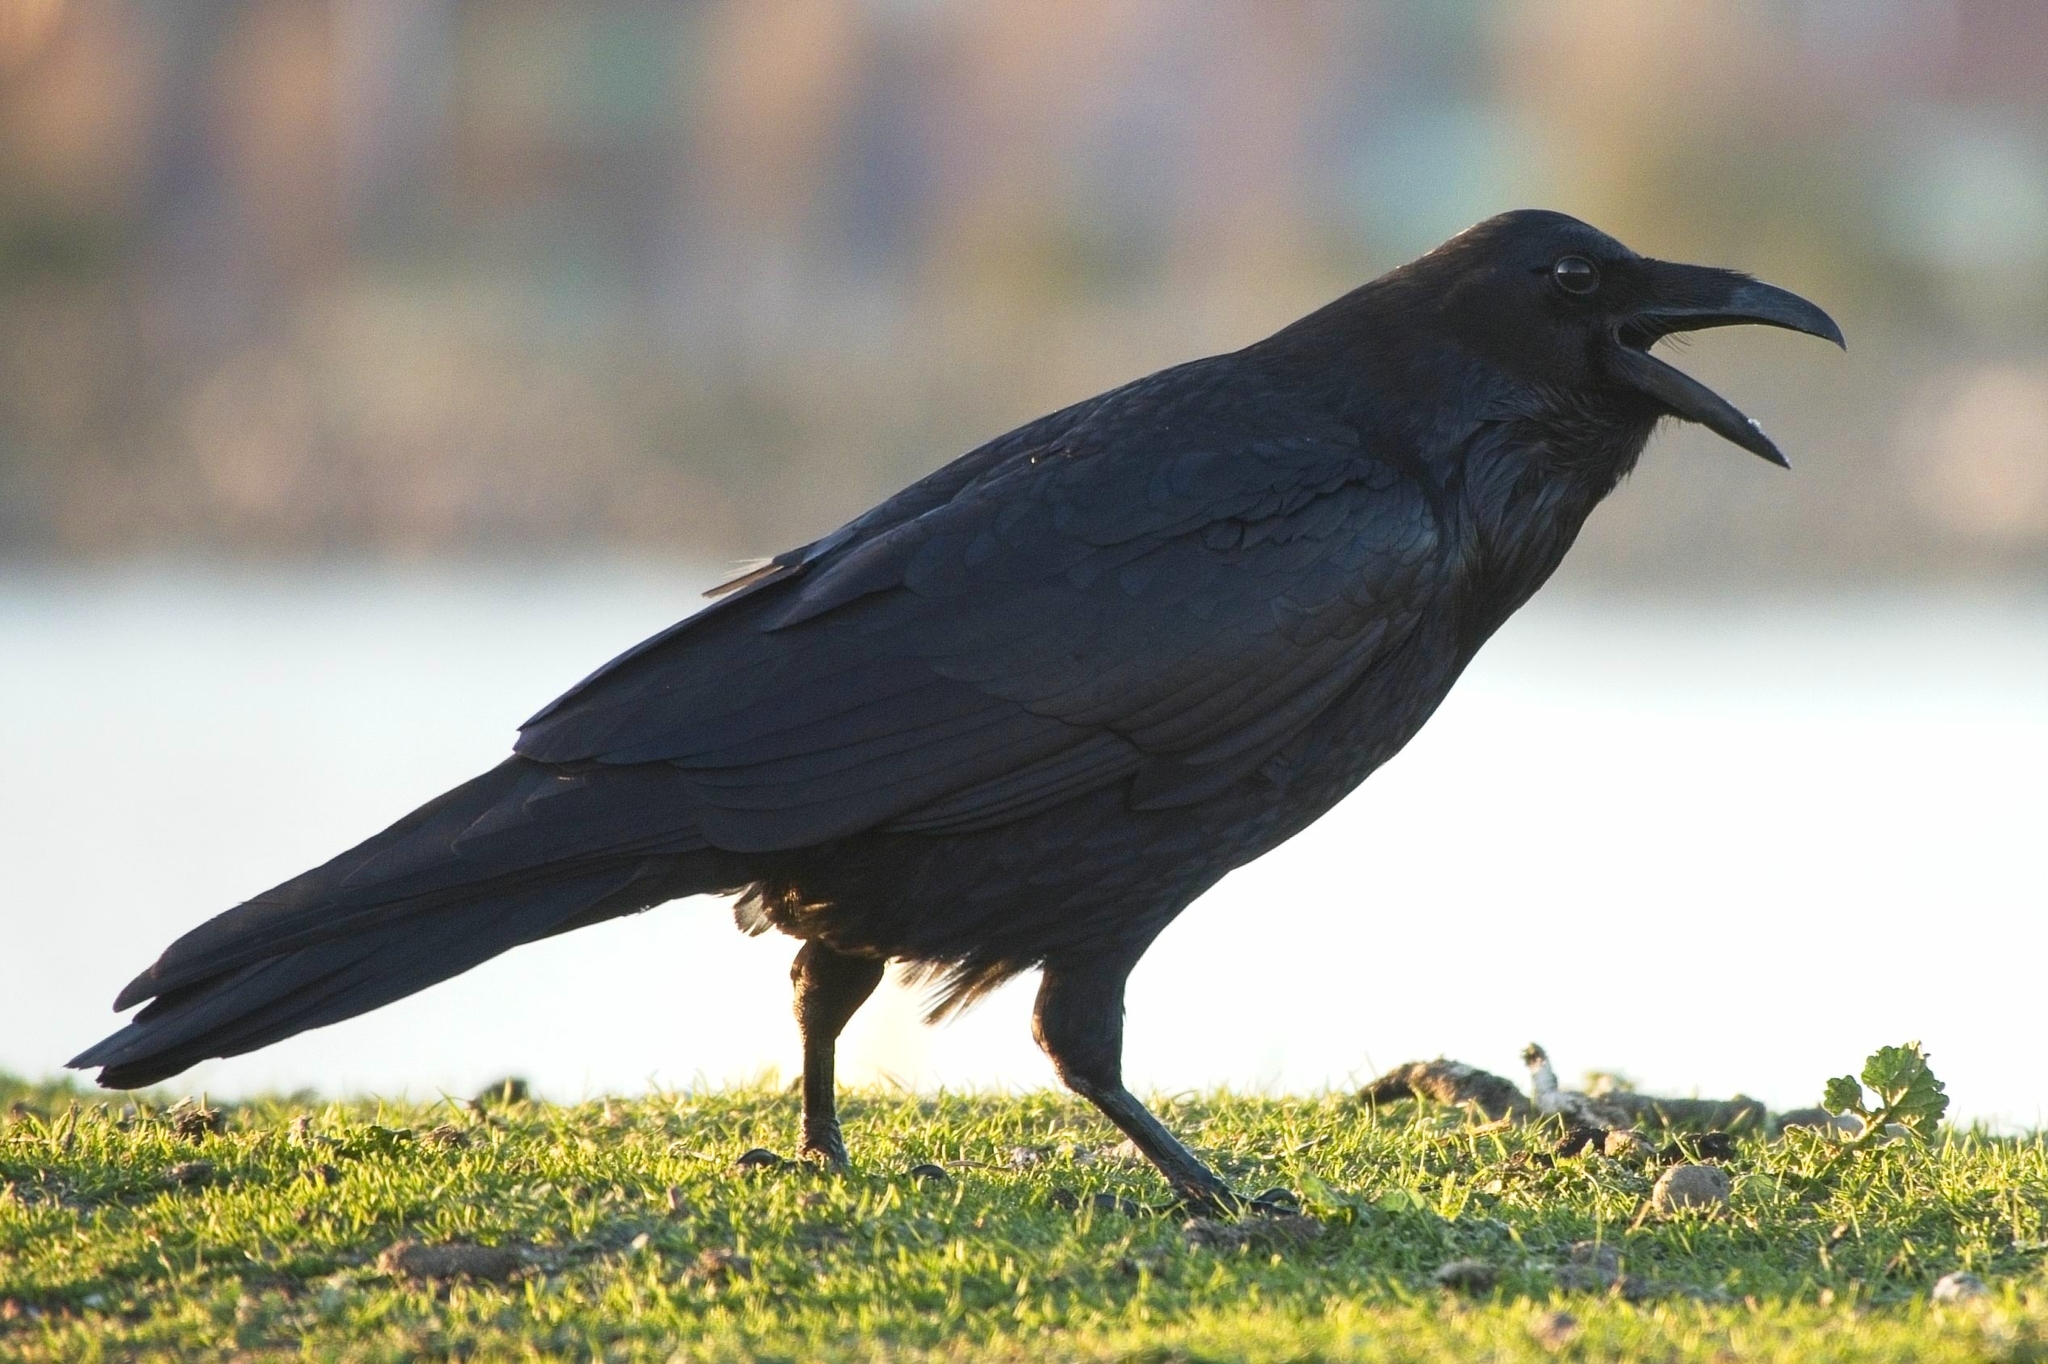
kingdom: Animalia
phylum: Chordata
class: Aves
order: Passeriformes
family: Corvidae
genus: Corvus
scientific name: Corvus corax
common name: Common raven
